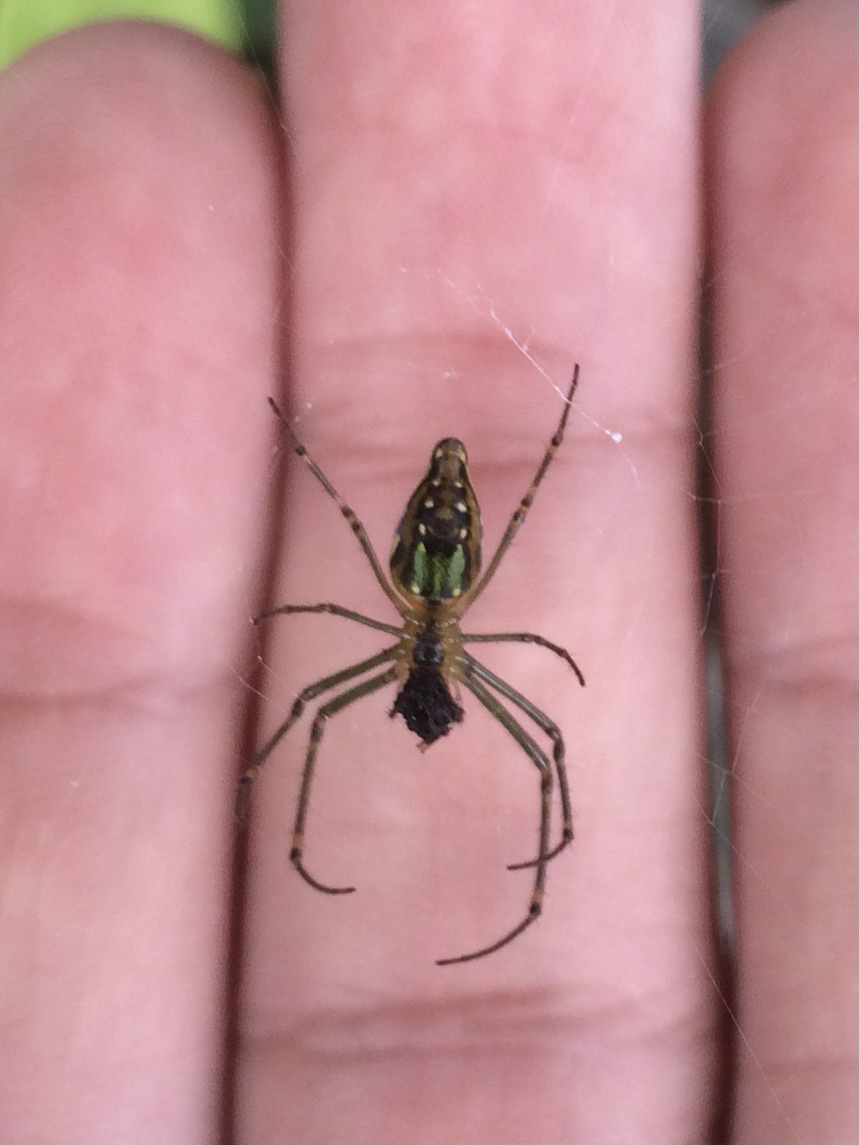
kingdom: Animalia
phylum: Arthropoda
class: Arachnida
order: Araneae
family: Tetragnathidae
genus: Leucauge
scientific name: Leucauge decorata
